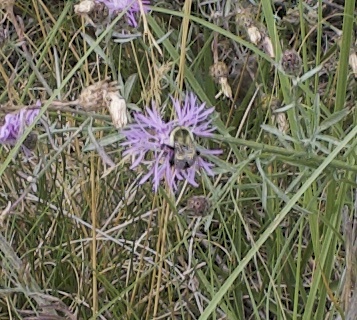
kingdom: Animalia
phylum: Arthropoda
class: Insecta
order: Hymenoptera
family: Apidae
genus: Bombus
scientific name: Bombus impatiens
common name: Common eastern bumble bee
